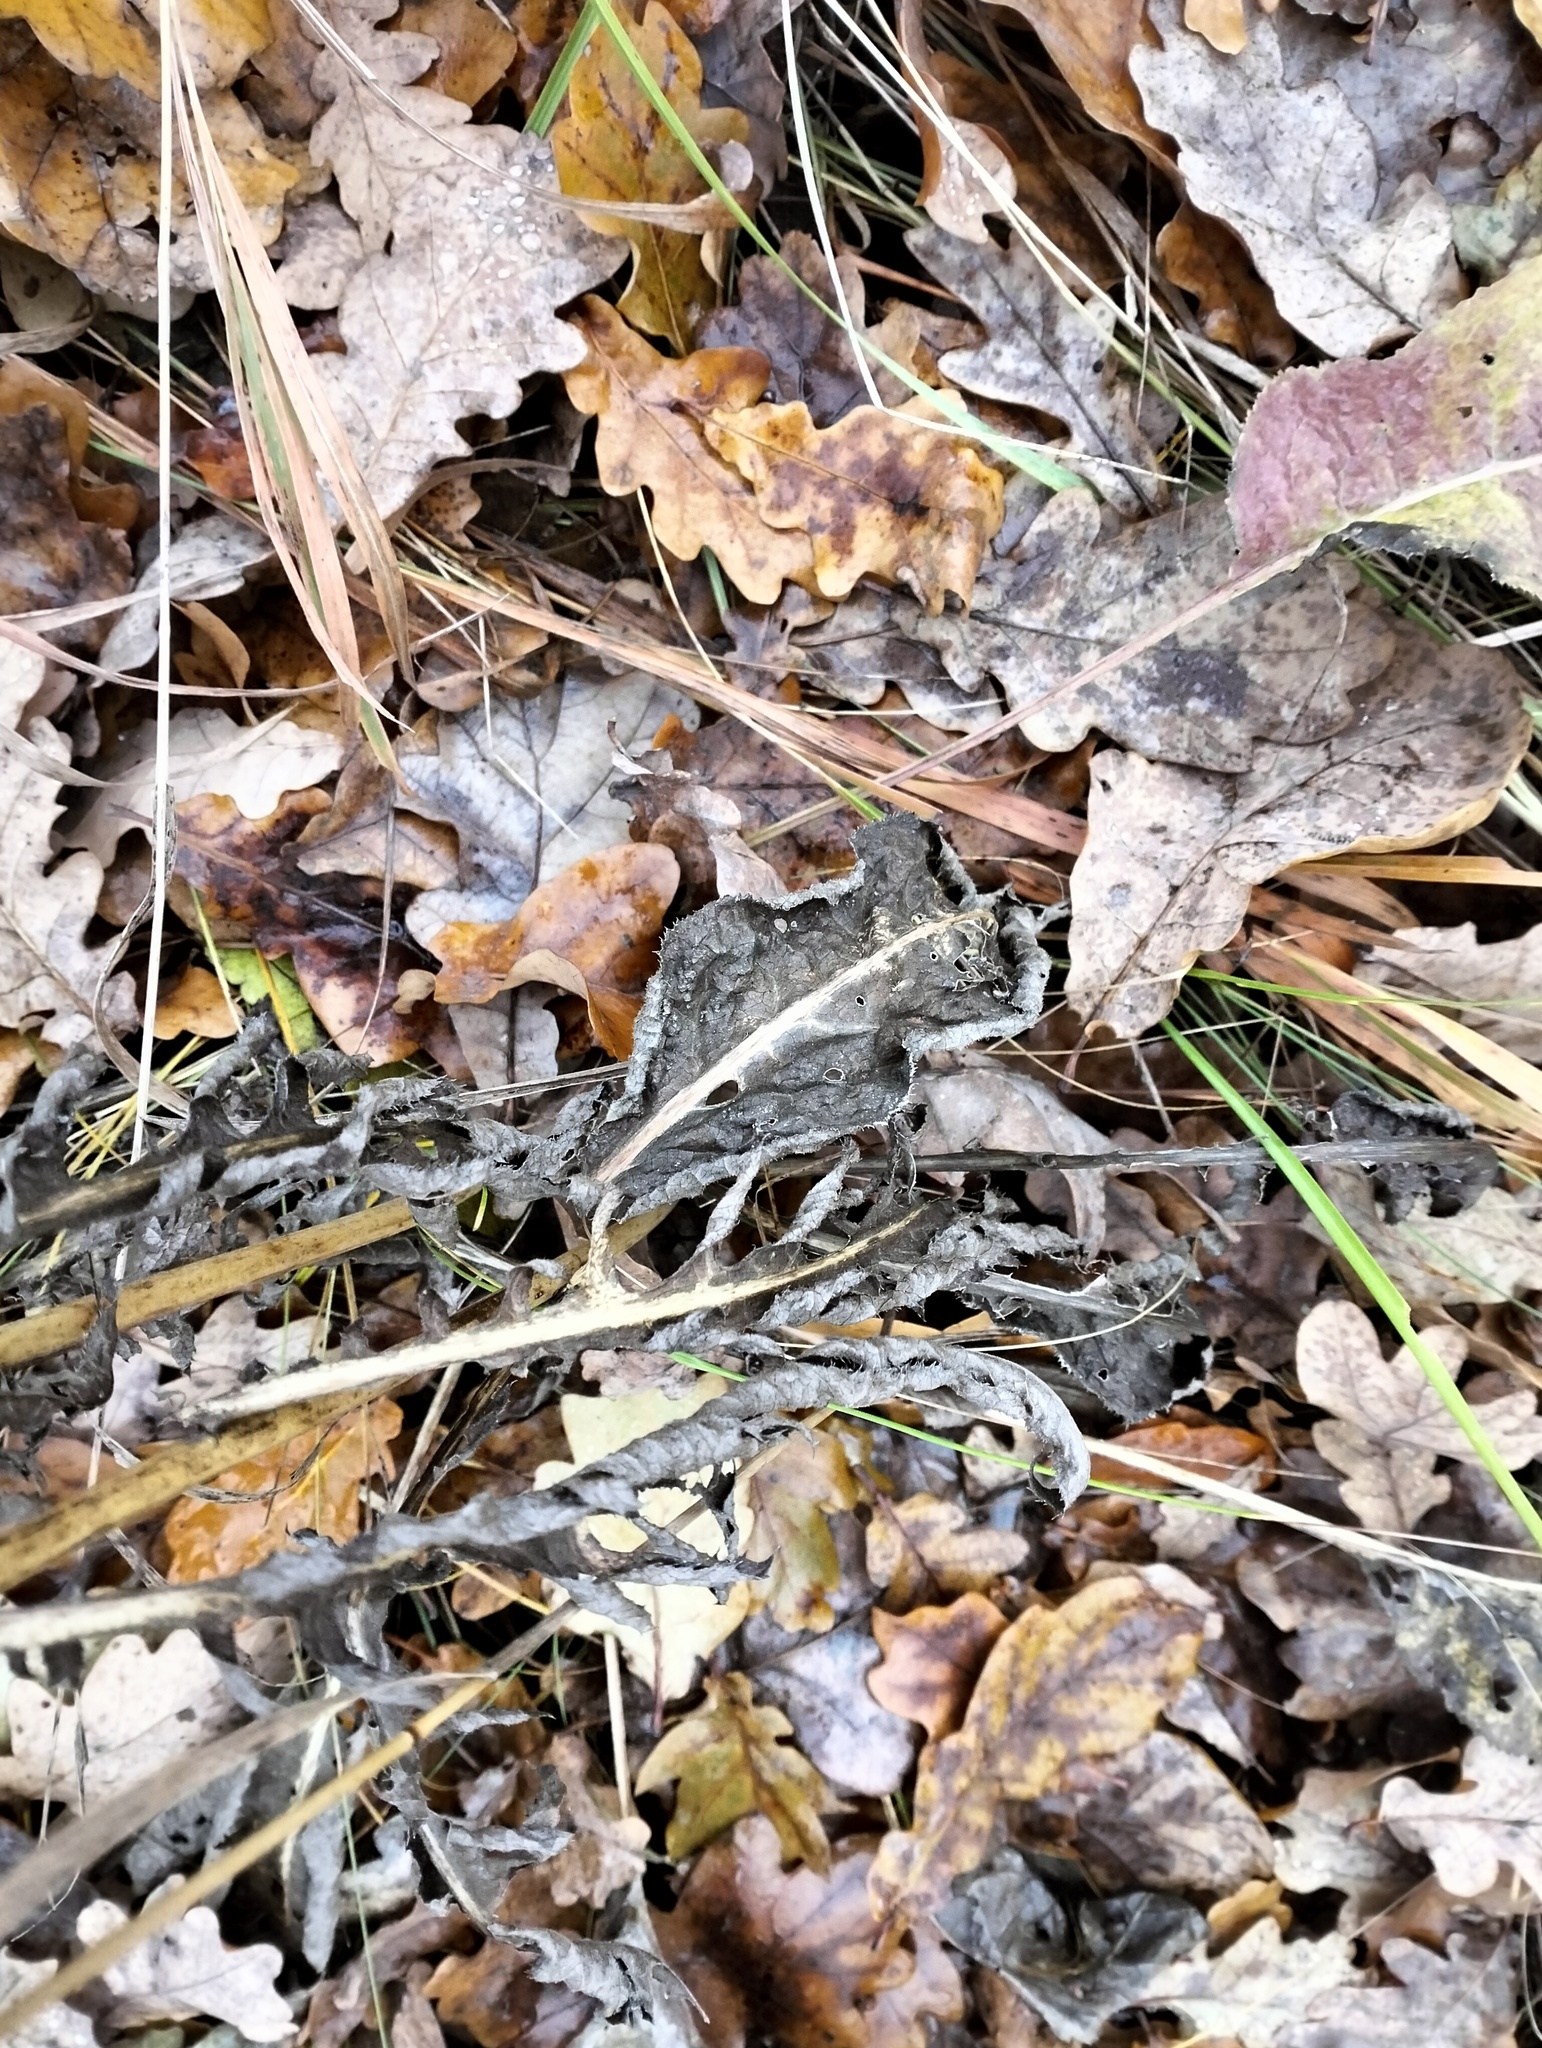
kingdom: Plantae
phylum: Tracheophyta
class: Magnoliopsida
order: Asterales
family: Asteraceae
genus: Serratula
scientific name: Serratula tinctoria
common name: Saw-wort
